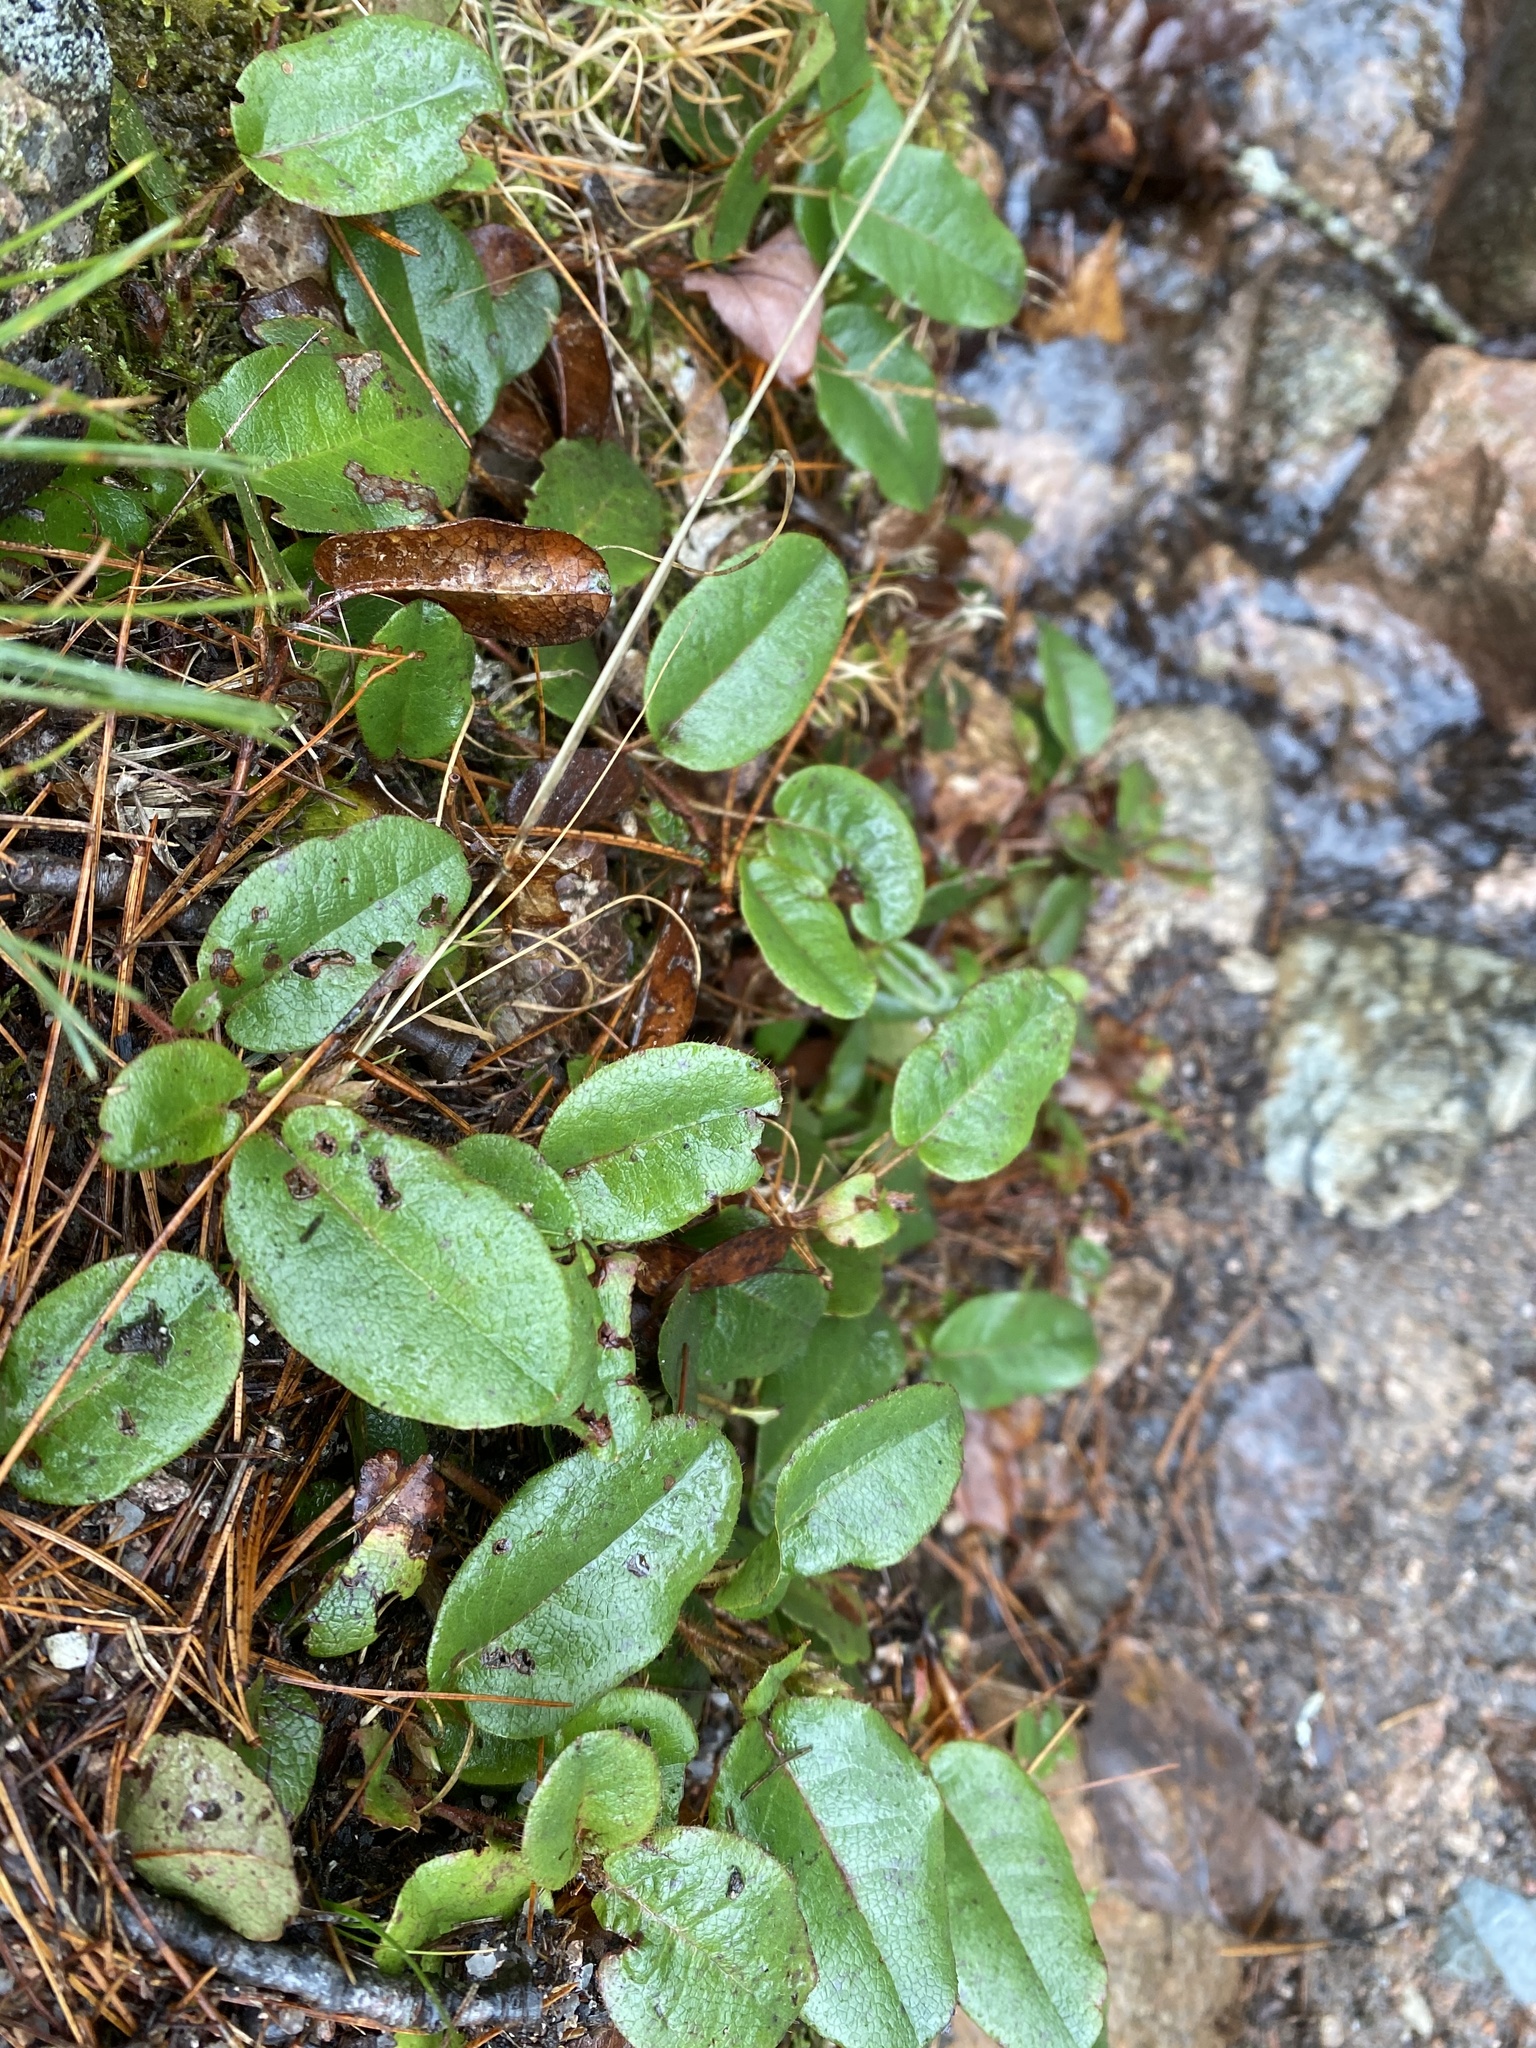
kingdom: Plantae
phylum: Tracheophyta
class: Magnoliopsida
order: Ericales
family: Ericaceae
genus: Epigaea
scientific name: Epigaea repens
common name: Gravelroot
